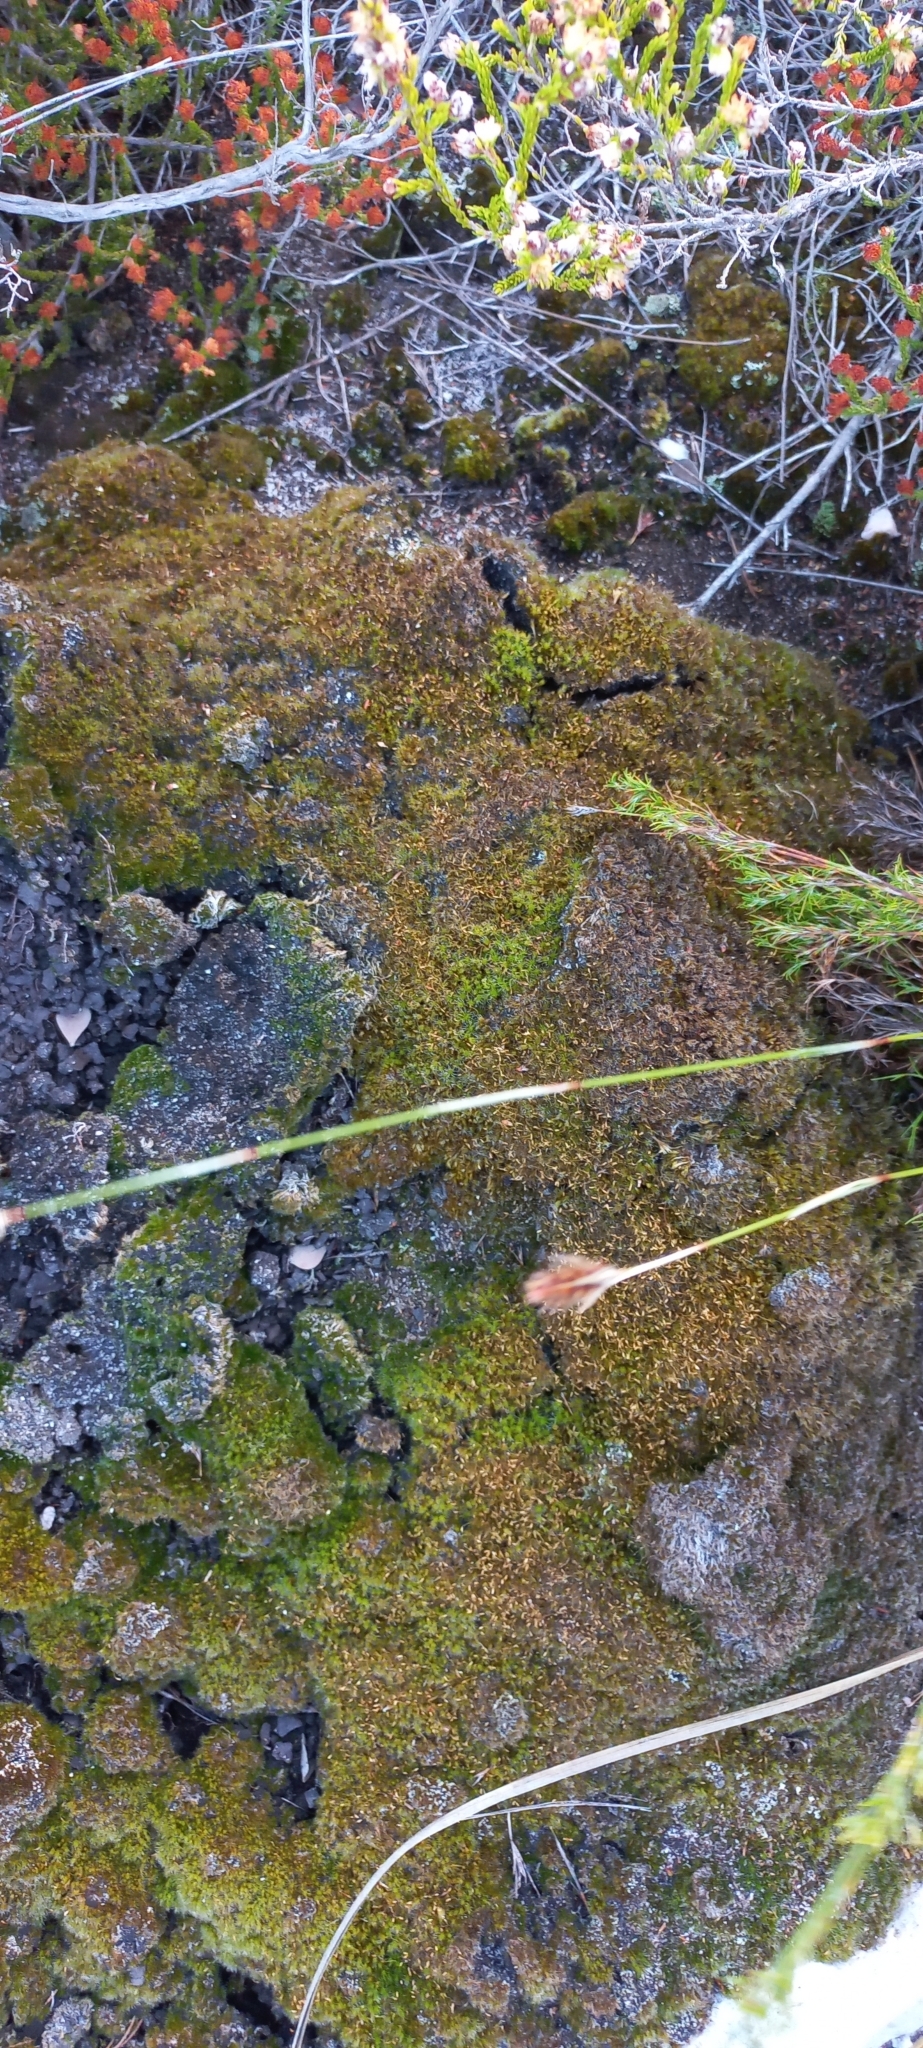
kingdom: Plantae
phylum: Bryophyta
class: Bryopsida
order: Dicranales
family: Leucobryaceae
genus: Campylopus
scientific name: Campylopus introflexus
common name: Heath star moss
